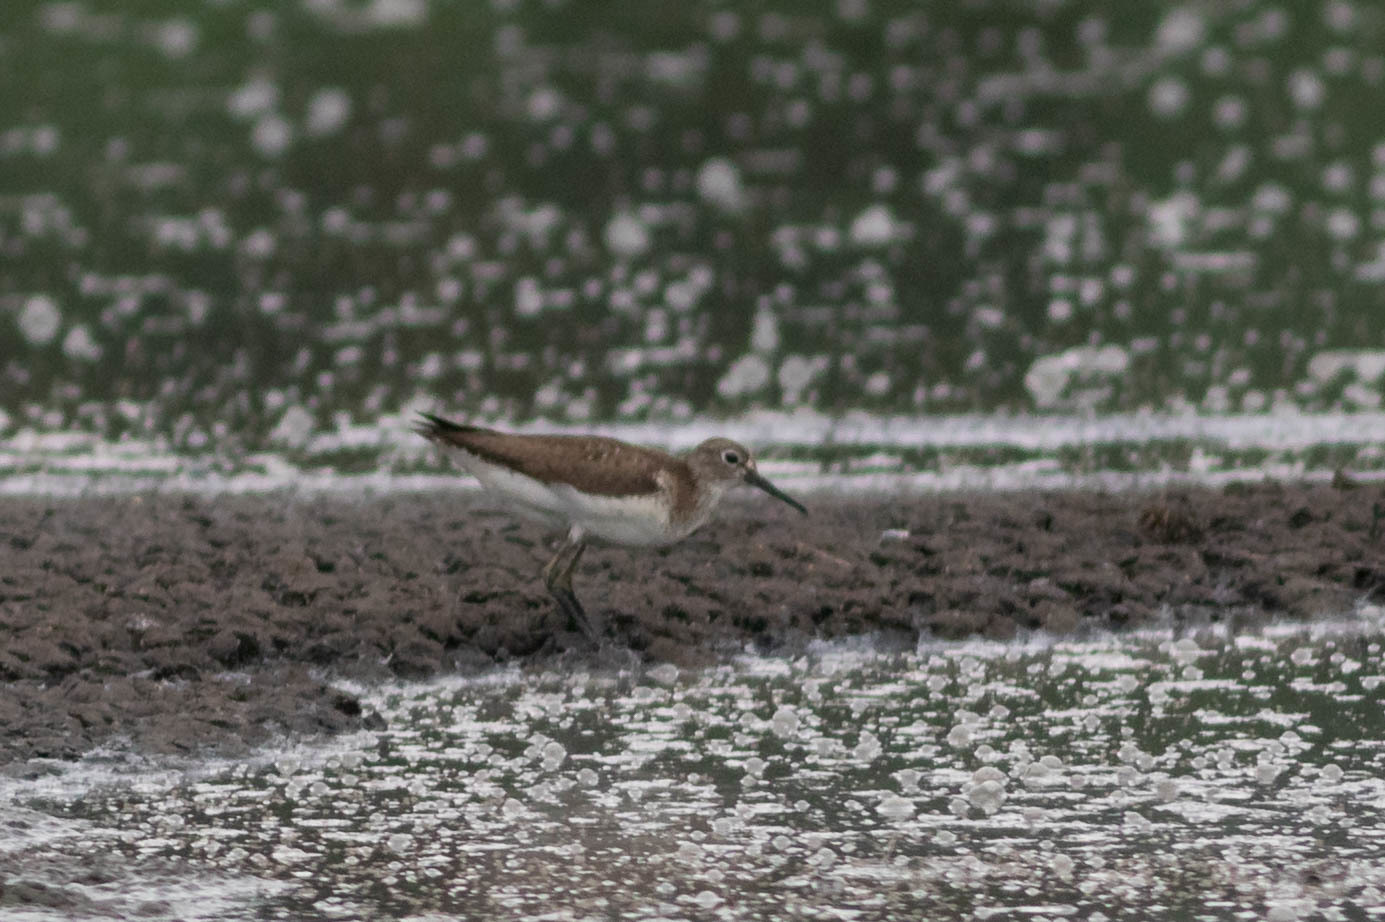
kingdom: Animalia
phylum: Chordata
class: Aves
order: Charadriiformes
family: Scolopacidae
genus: Tringa
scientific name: Tringa solitaria
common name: Solitary sandpiper
